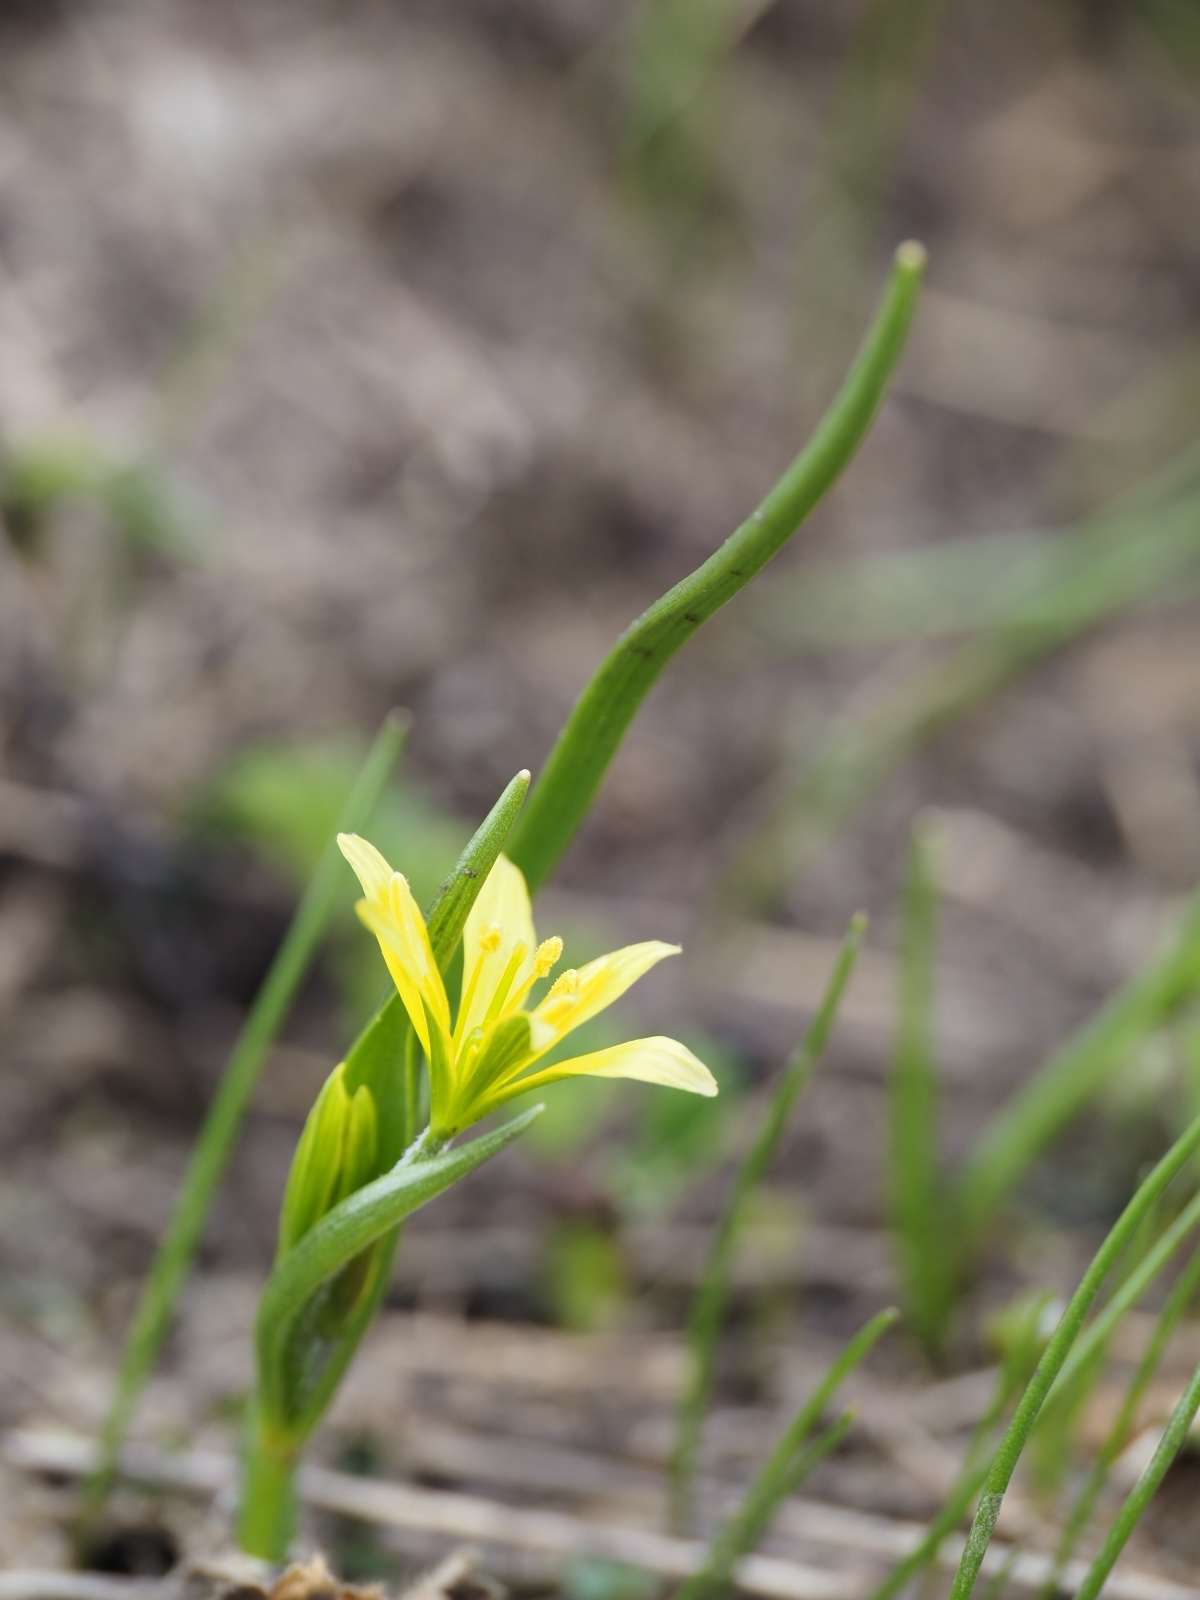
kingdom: Plantae
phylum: Tracheophyta
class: Liliopsida
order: Liliales
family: Liliaceae
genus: Gagea
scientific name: Gagea fragifera
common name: Lily
